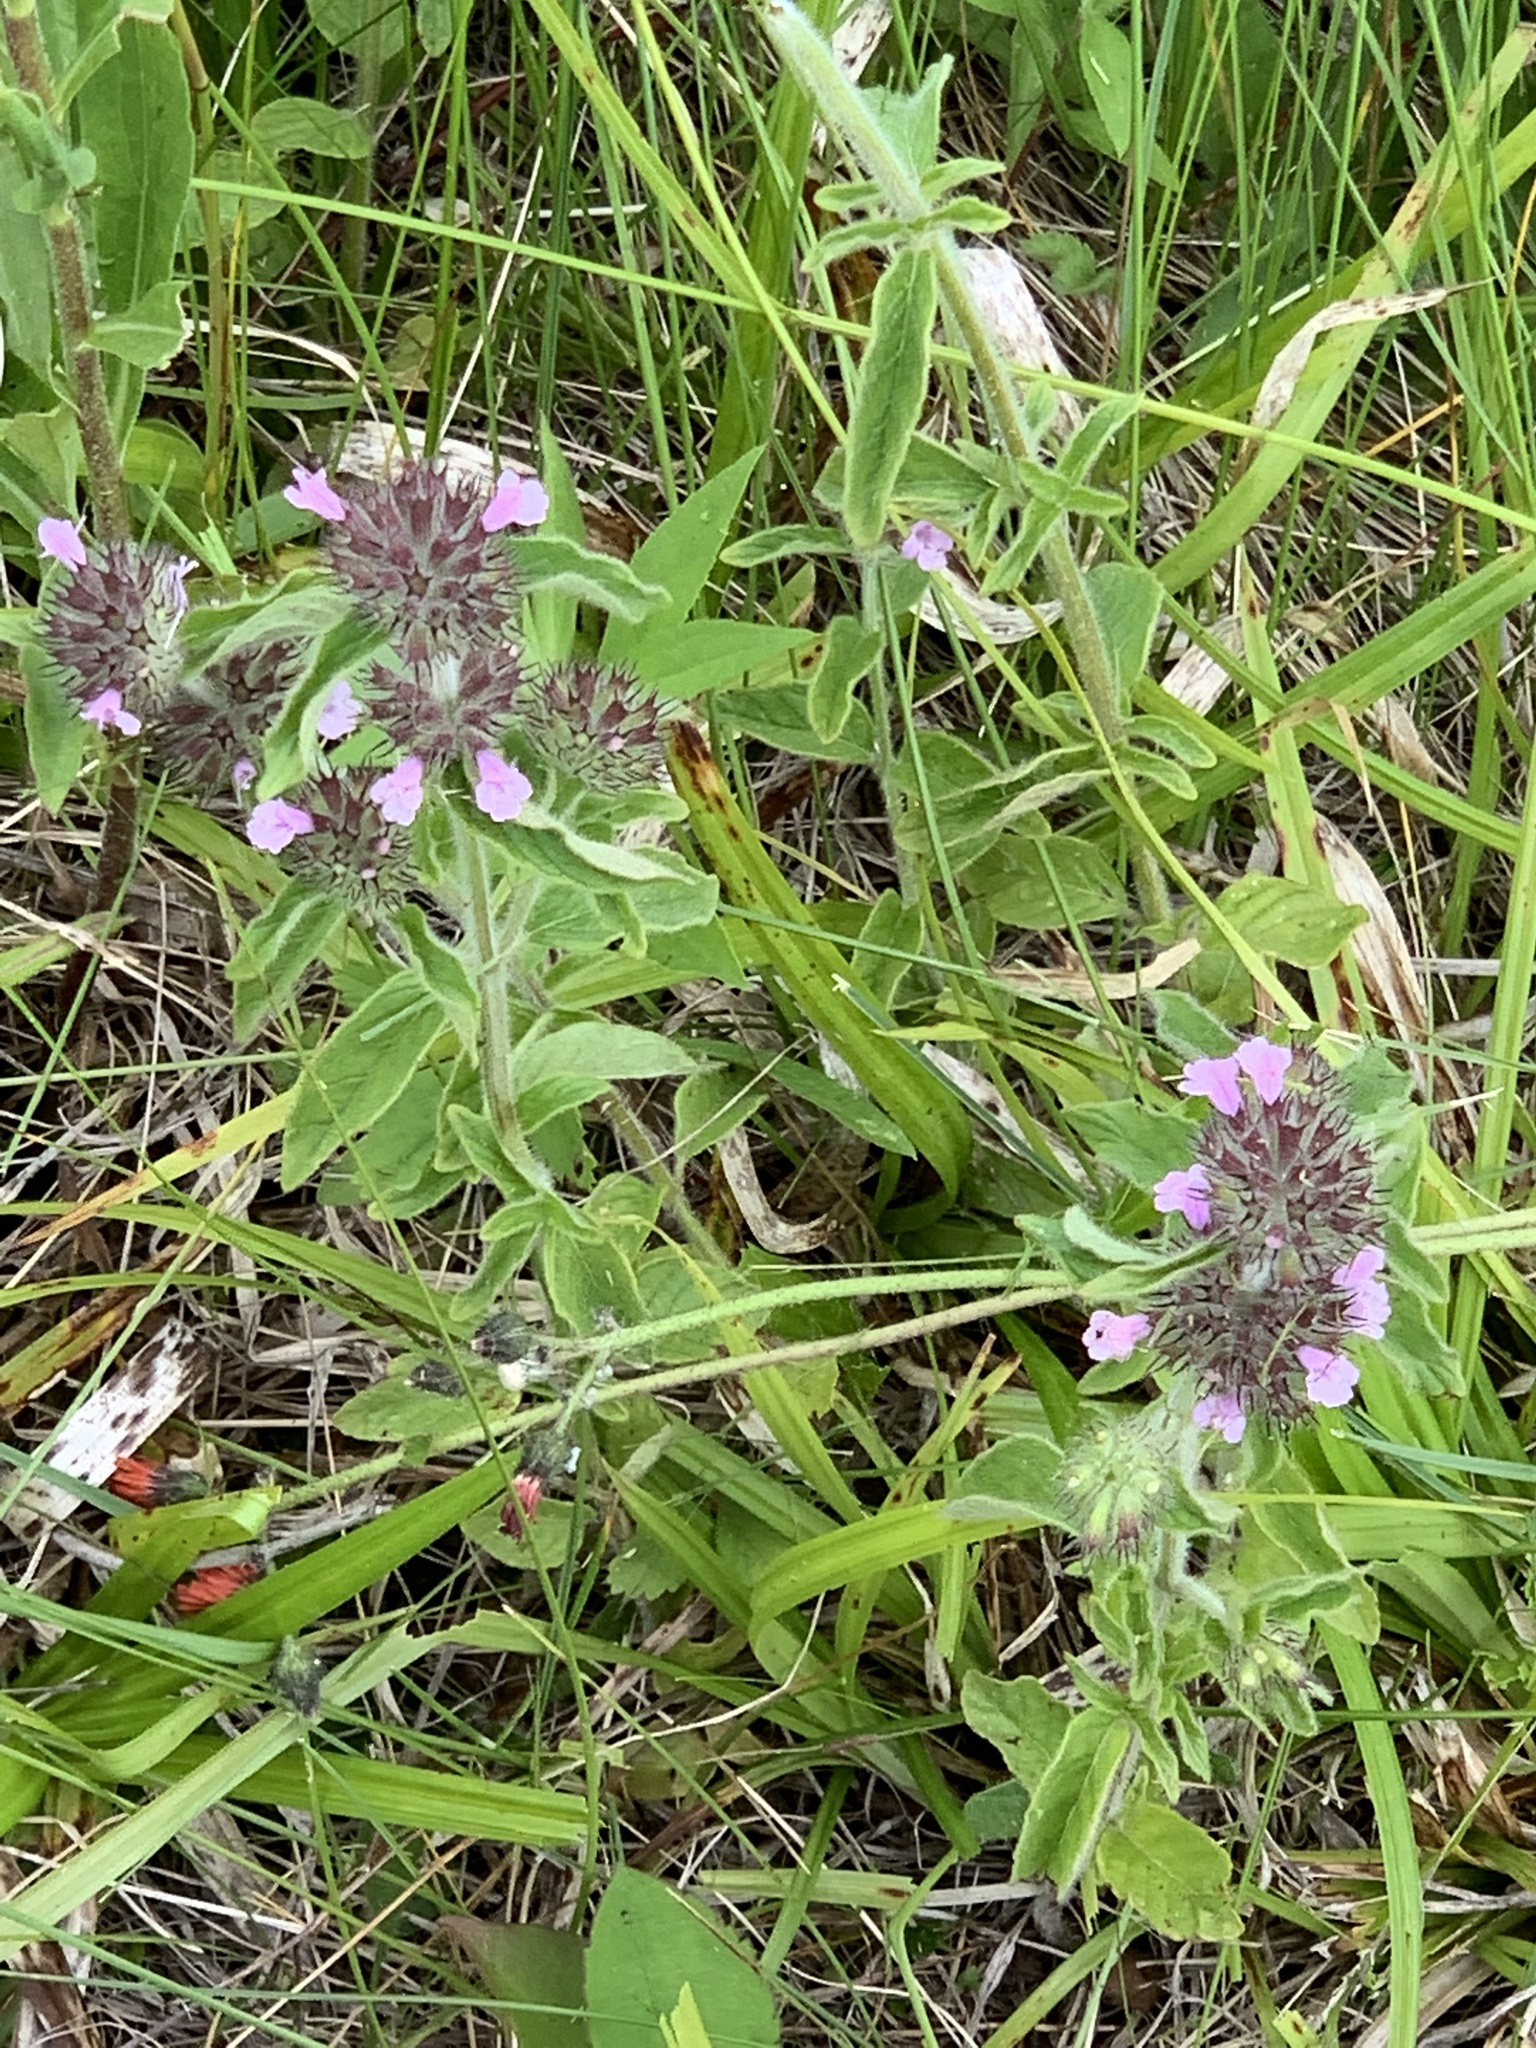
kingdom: Plantae
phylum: Tracheophyta
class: Magnoliopsida
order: Lamiales
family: Lamiaceae
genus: Clinopodium
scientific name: Clinopodium vulgare
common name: Wild basil
